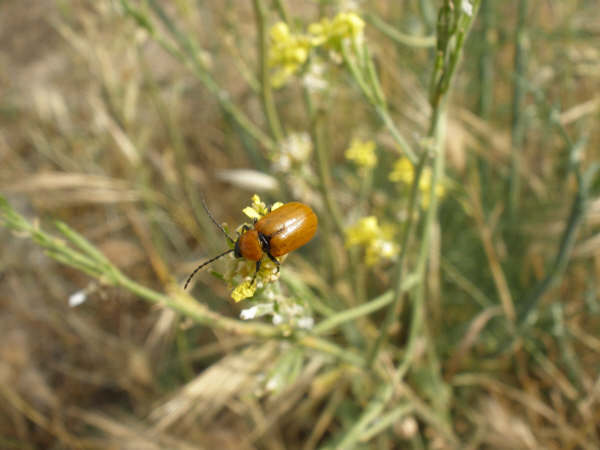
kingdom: Animalia
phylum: Arthropoda
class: Insecta
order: Coleoptera
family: Chrysomelidae
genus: Exosoma
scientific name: Exosoma lusitanicum
